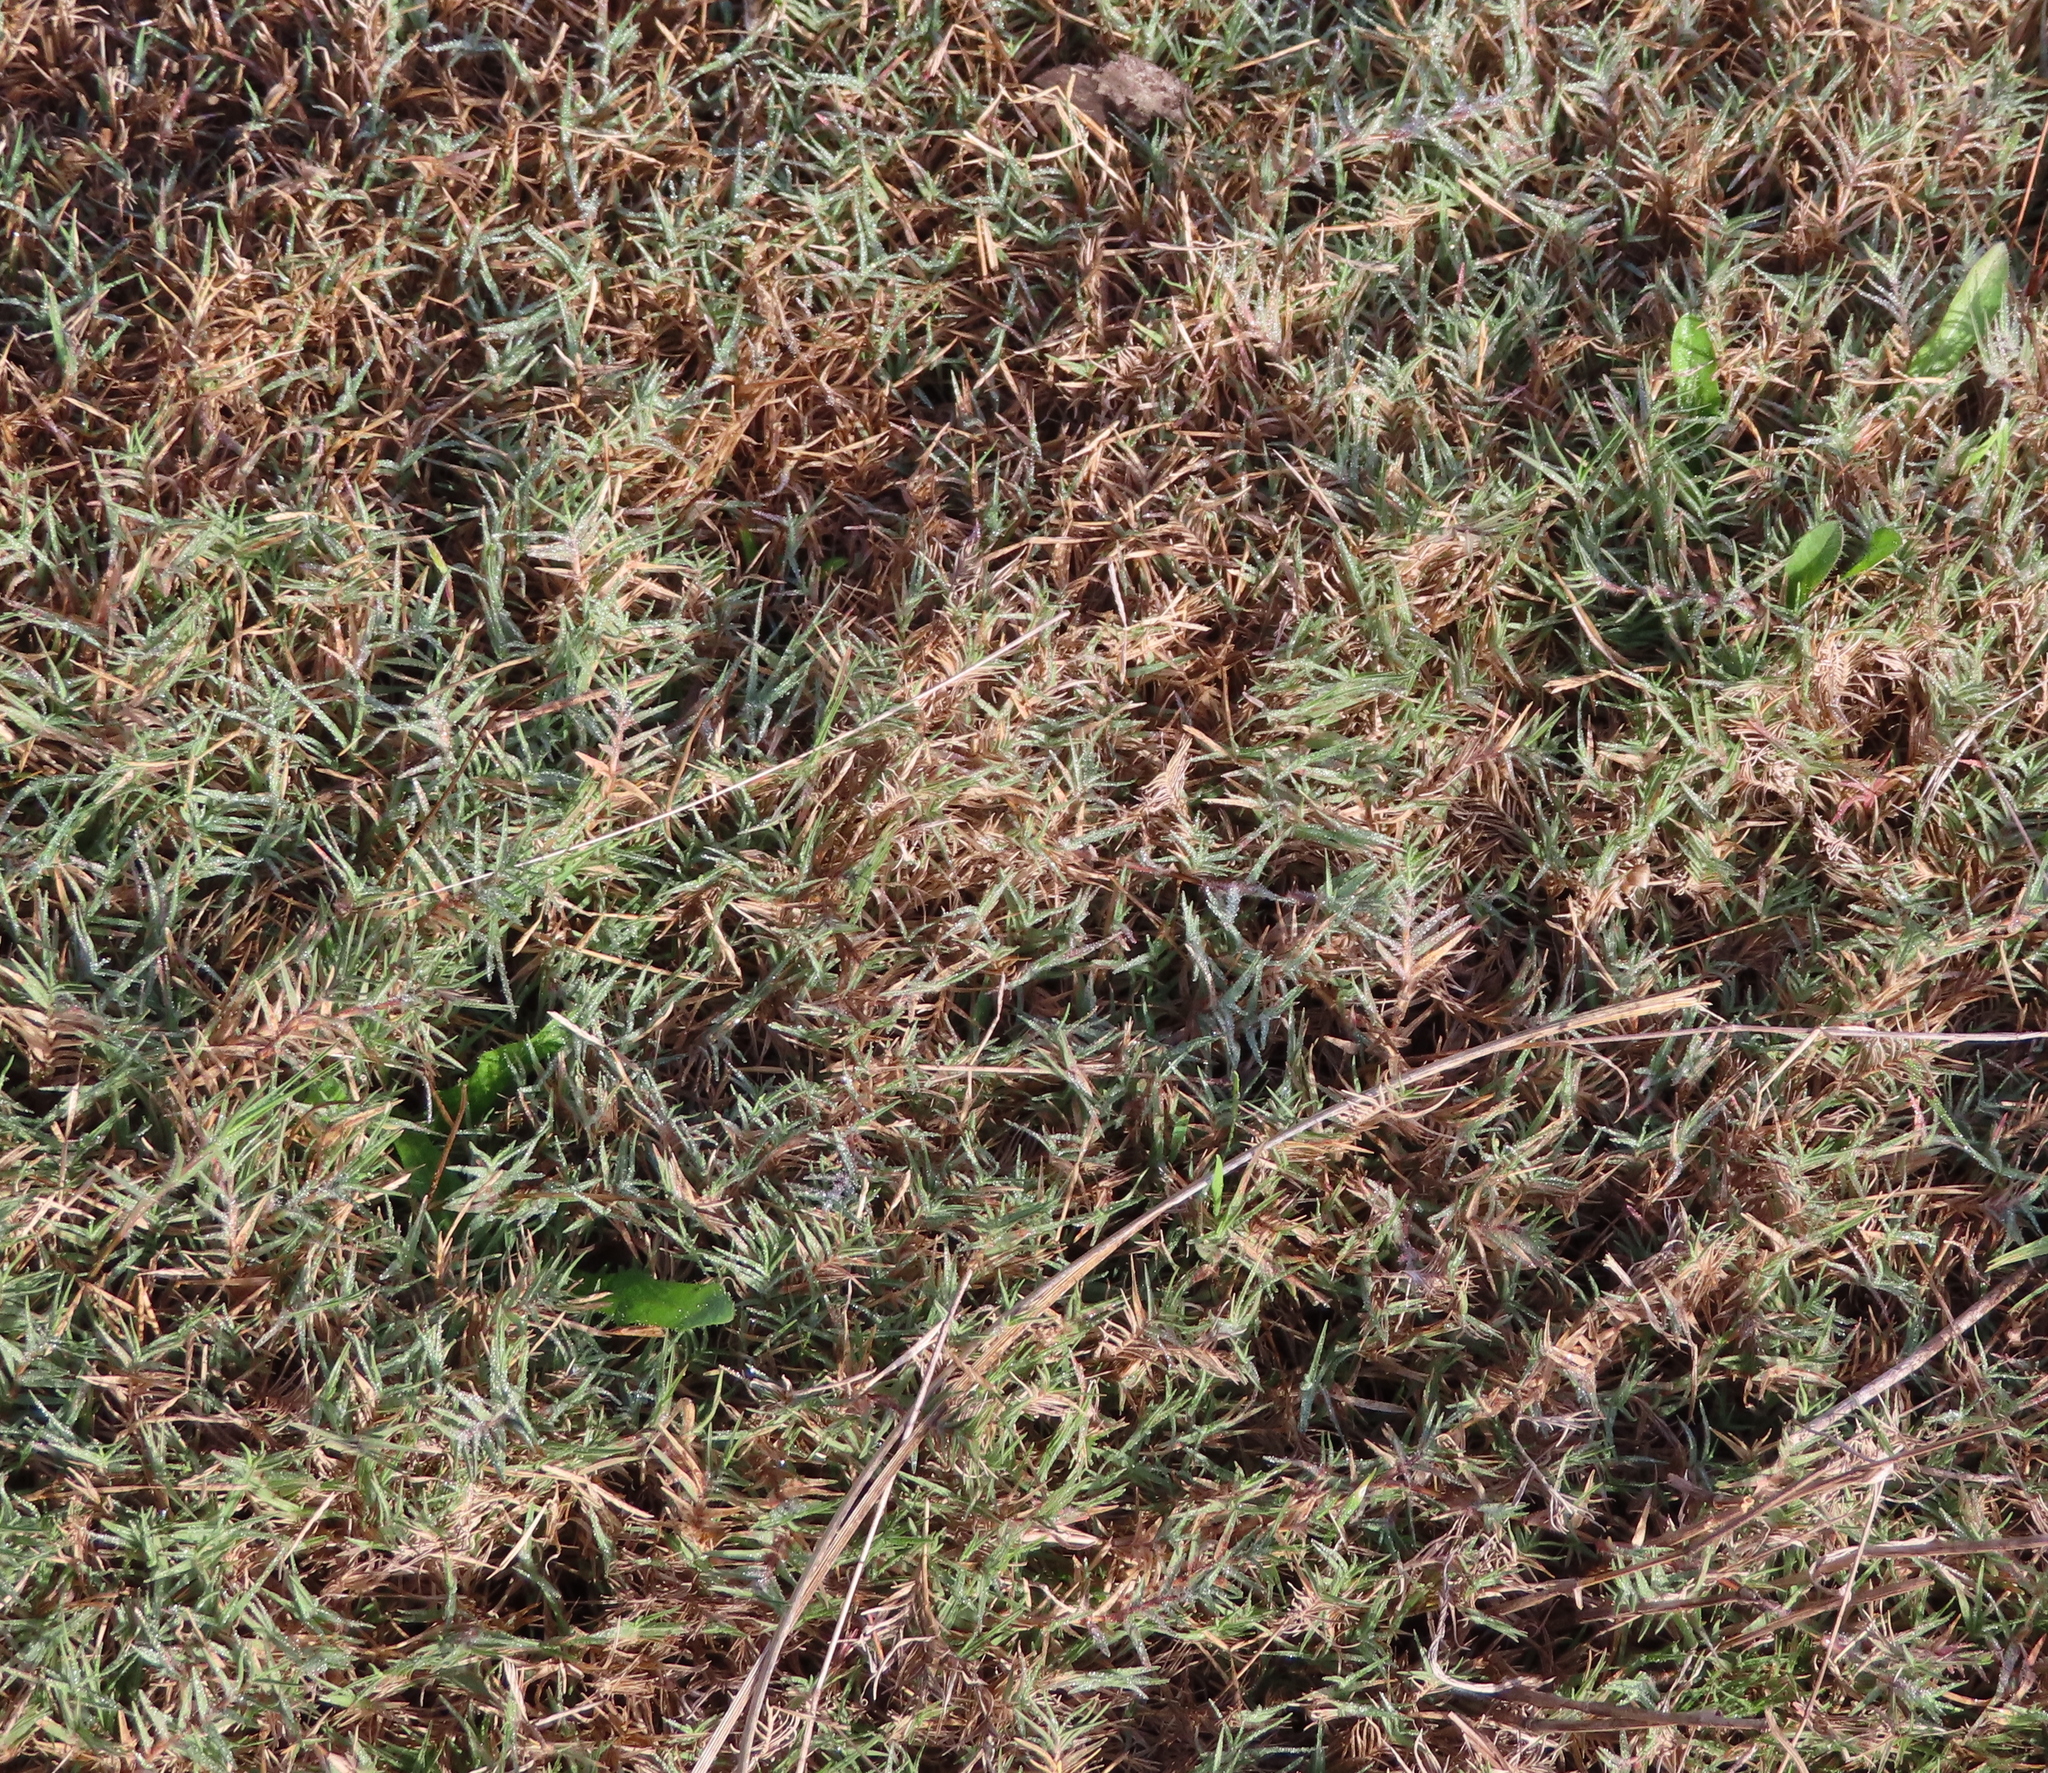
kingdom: Plantae
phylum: Tracheophyta
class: Liliopsida
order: Poales
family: Poaceae
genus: Cynodon
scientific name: Cynodon dactylon
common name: Bermuda grass
